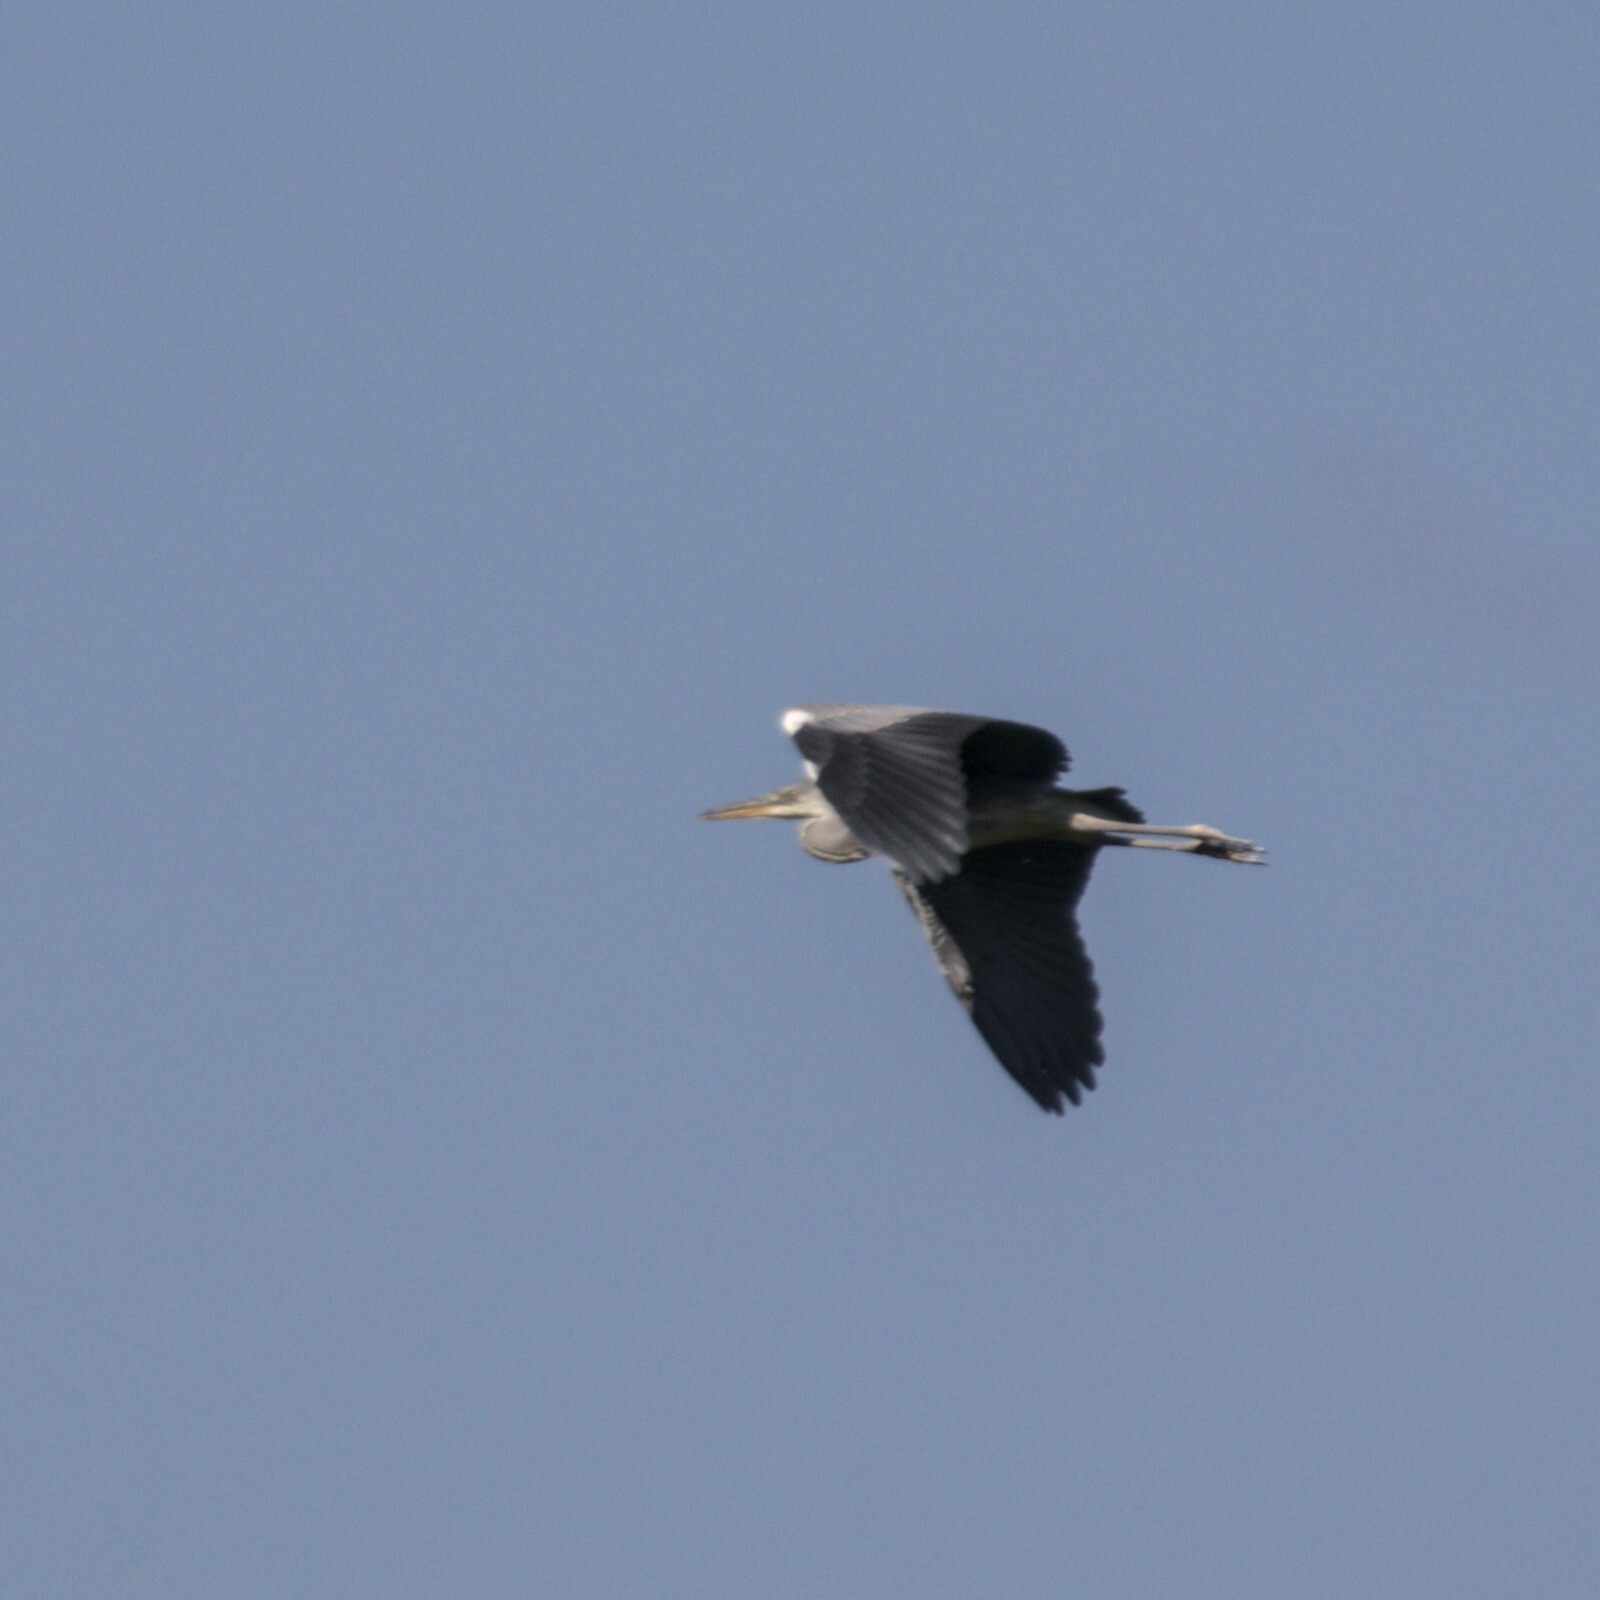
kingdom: Animalia
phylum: Chordata
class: Aves
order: Pelecaniformes
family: Ardeidae
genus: Ardea
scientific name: Ardea cinerea
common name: Grey heron
